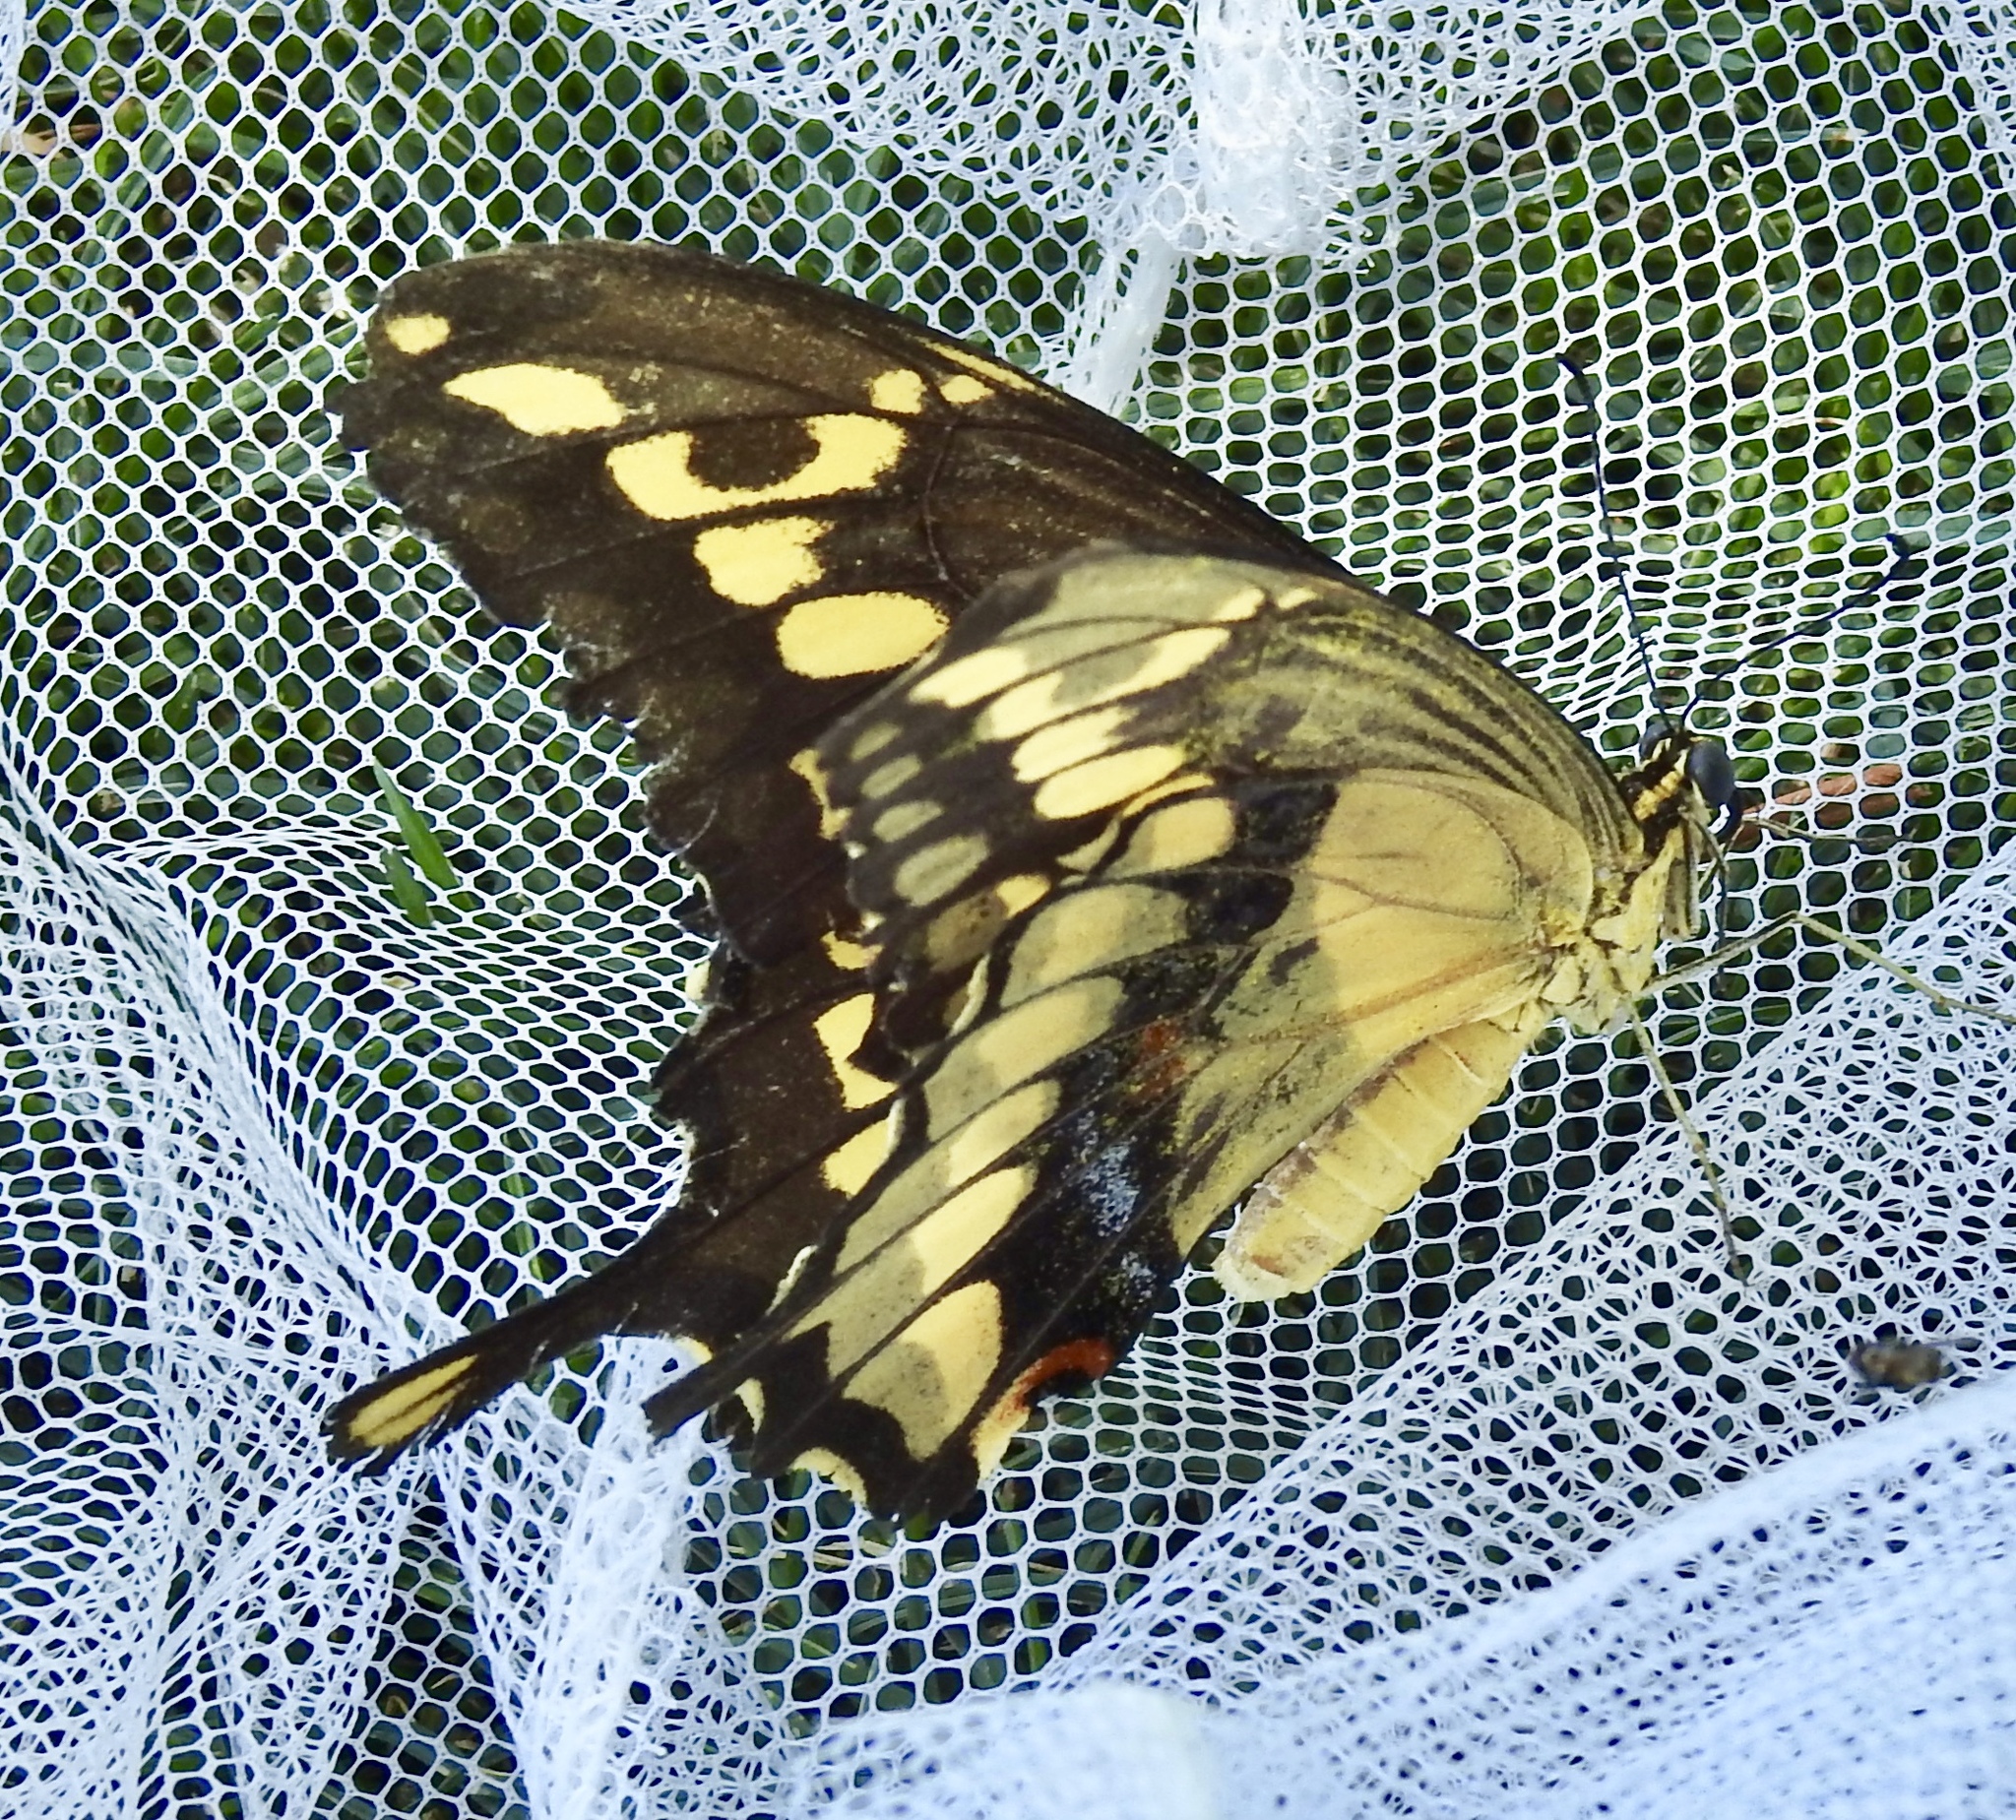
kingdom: Animalia
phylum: Arthropoda
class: Insecta
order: Lepidoptera
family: Papilionidae
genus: Papilio
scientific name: Papilio rumiko
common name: Western giant swallowtail
